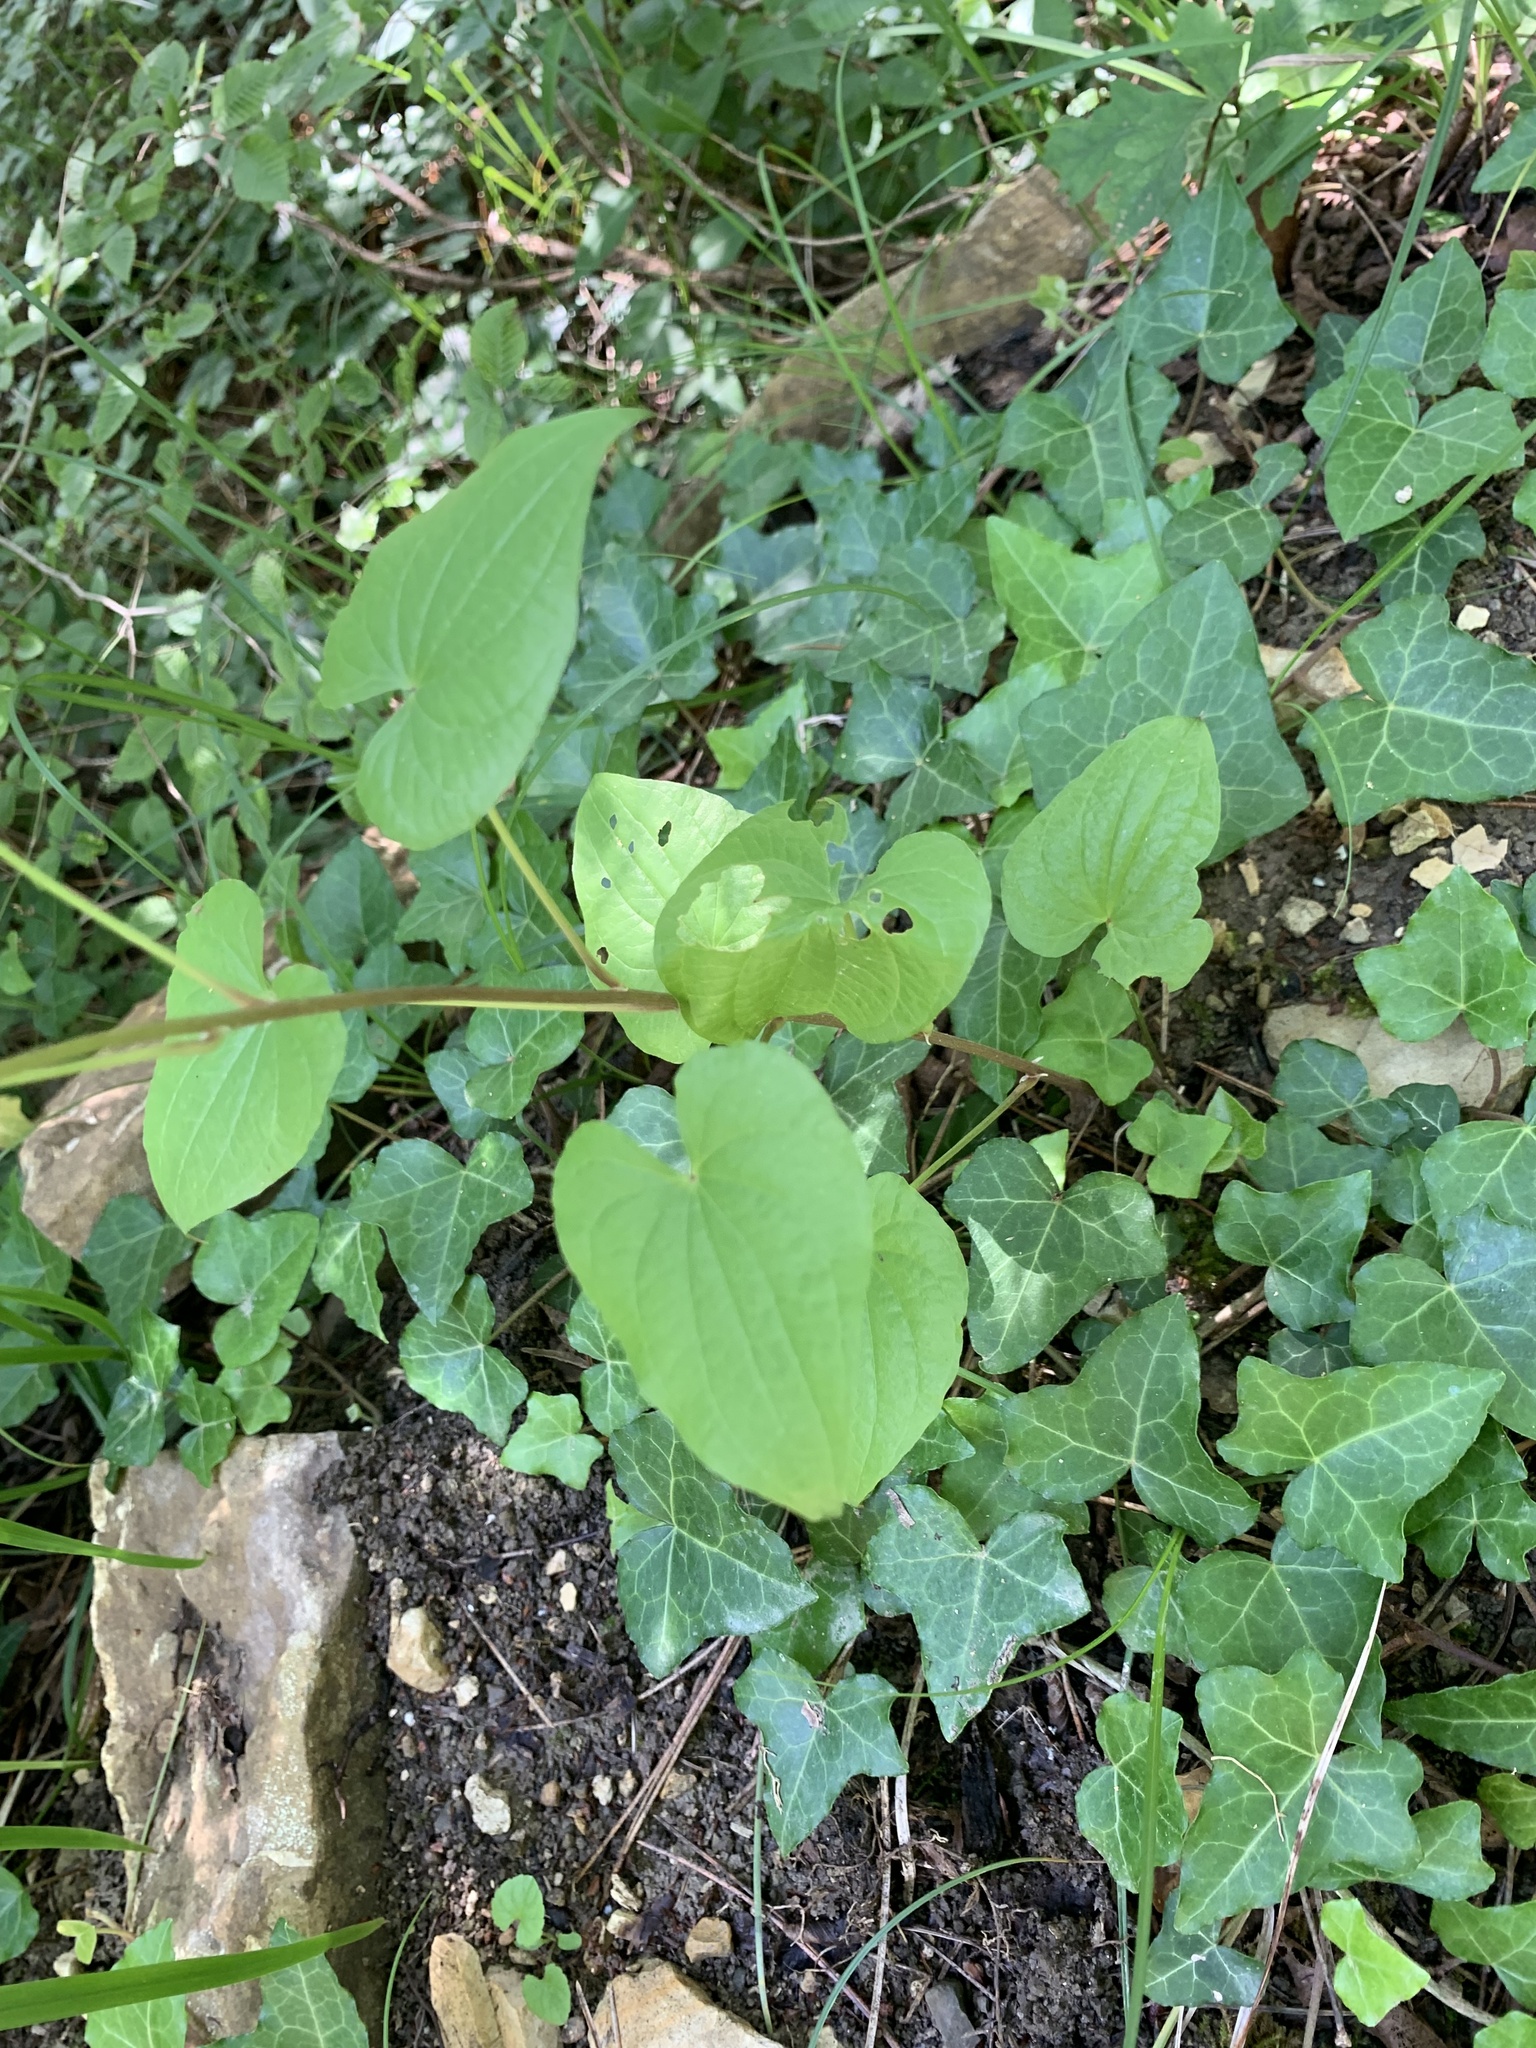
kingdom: Plantae
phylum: Tracheophyta
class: Liliopsida
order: Dioscoreales
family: Dioscoreaceae
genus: Dioscorea
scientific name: Dioscorea communis
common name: Black-bindweed
